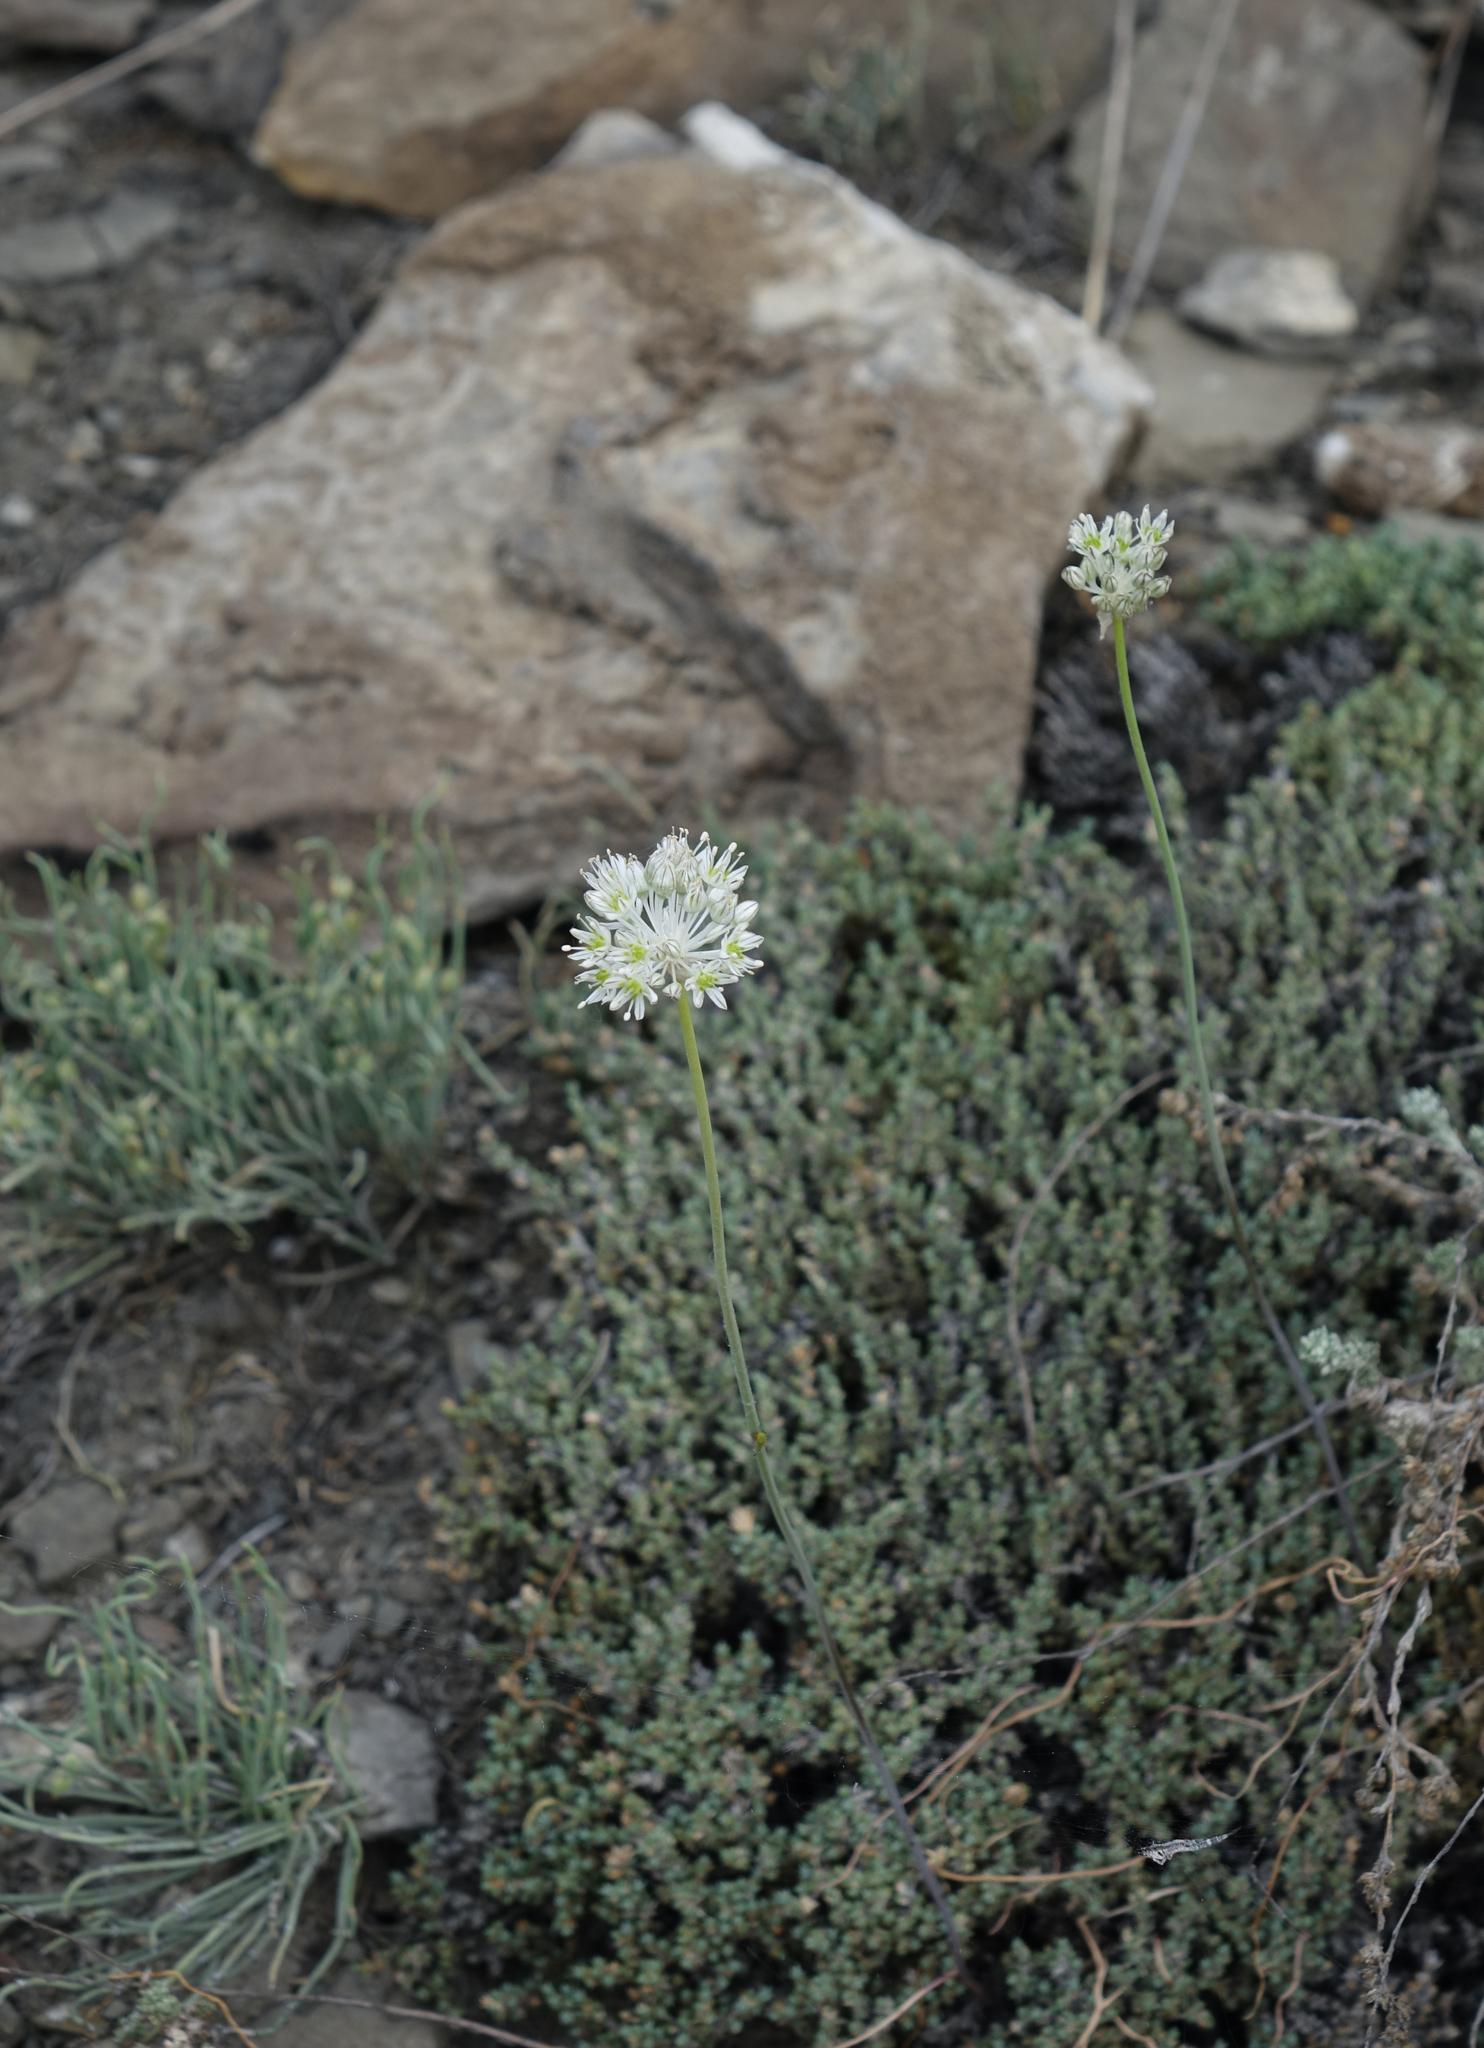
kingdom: Plantae
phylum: Tracheophyta
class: Liliopsida
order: Asparagales
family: Amaryllidaceae
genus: Allium
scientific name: Allium delicatulum
